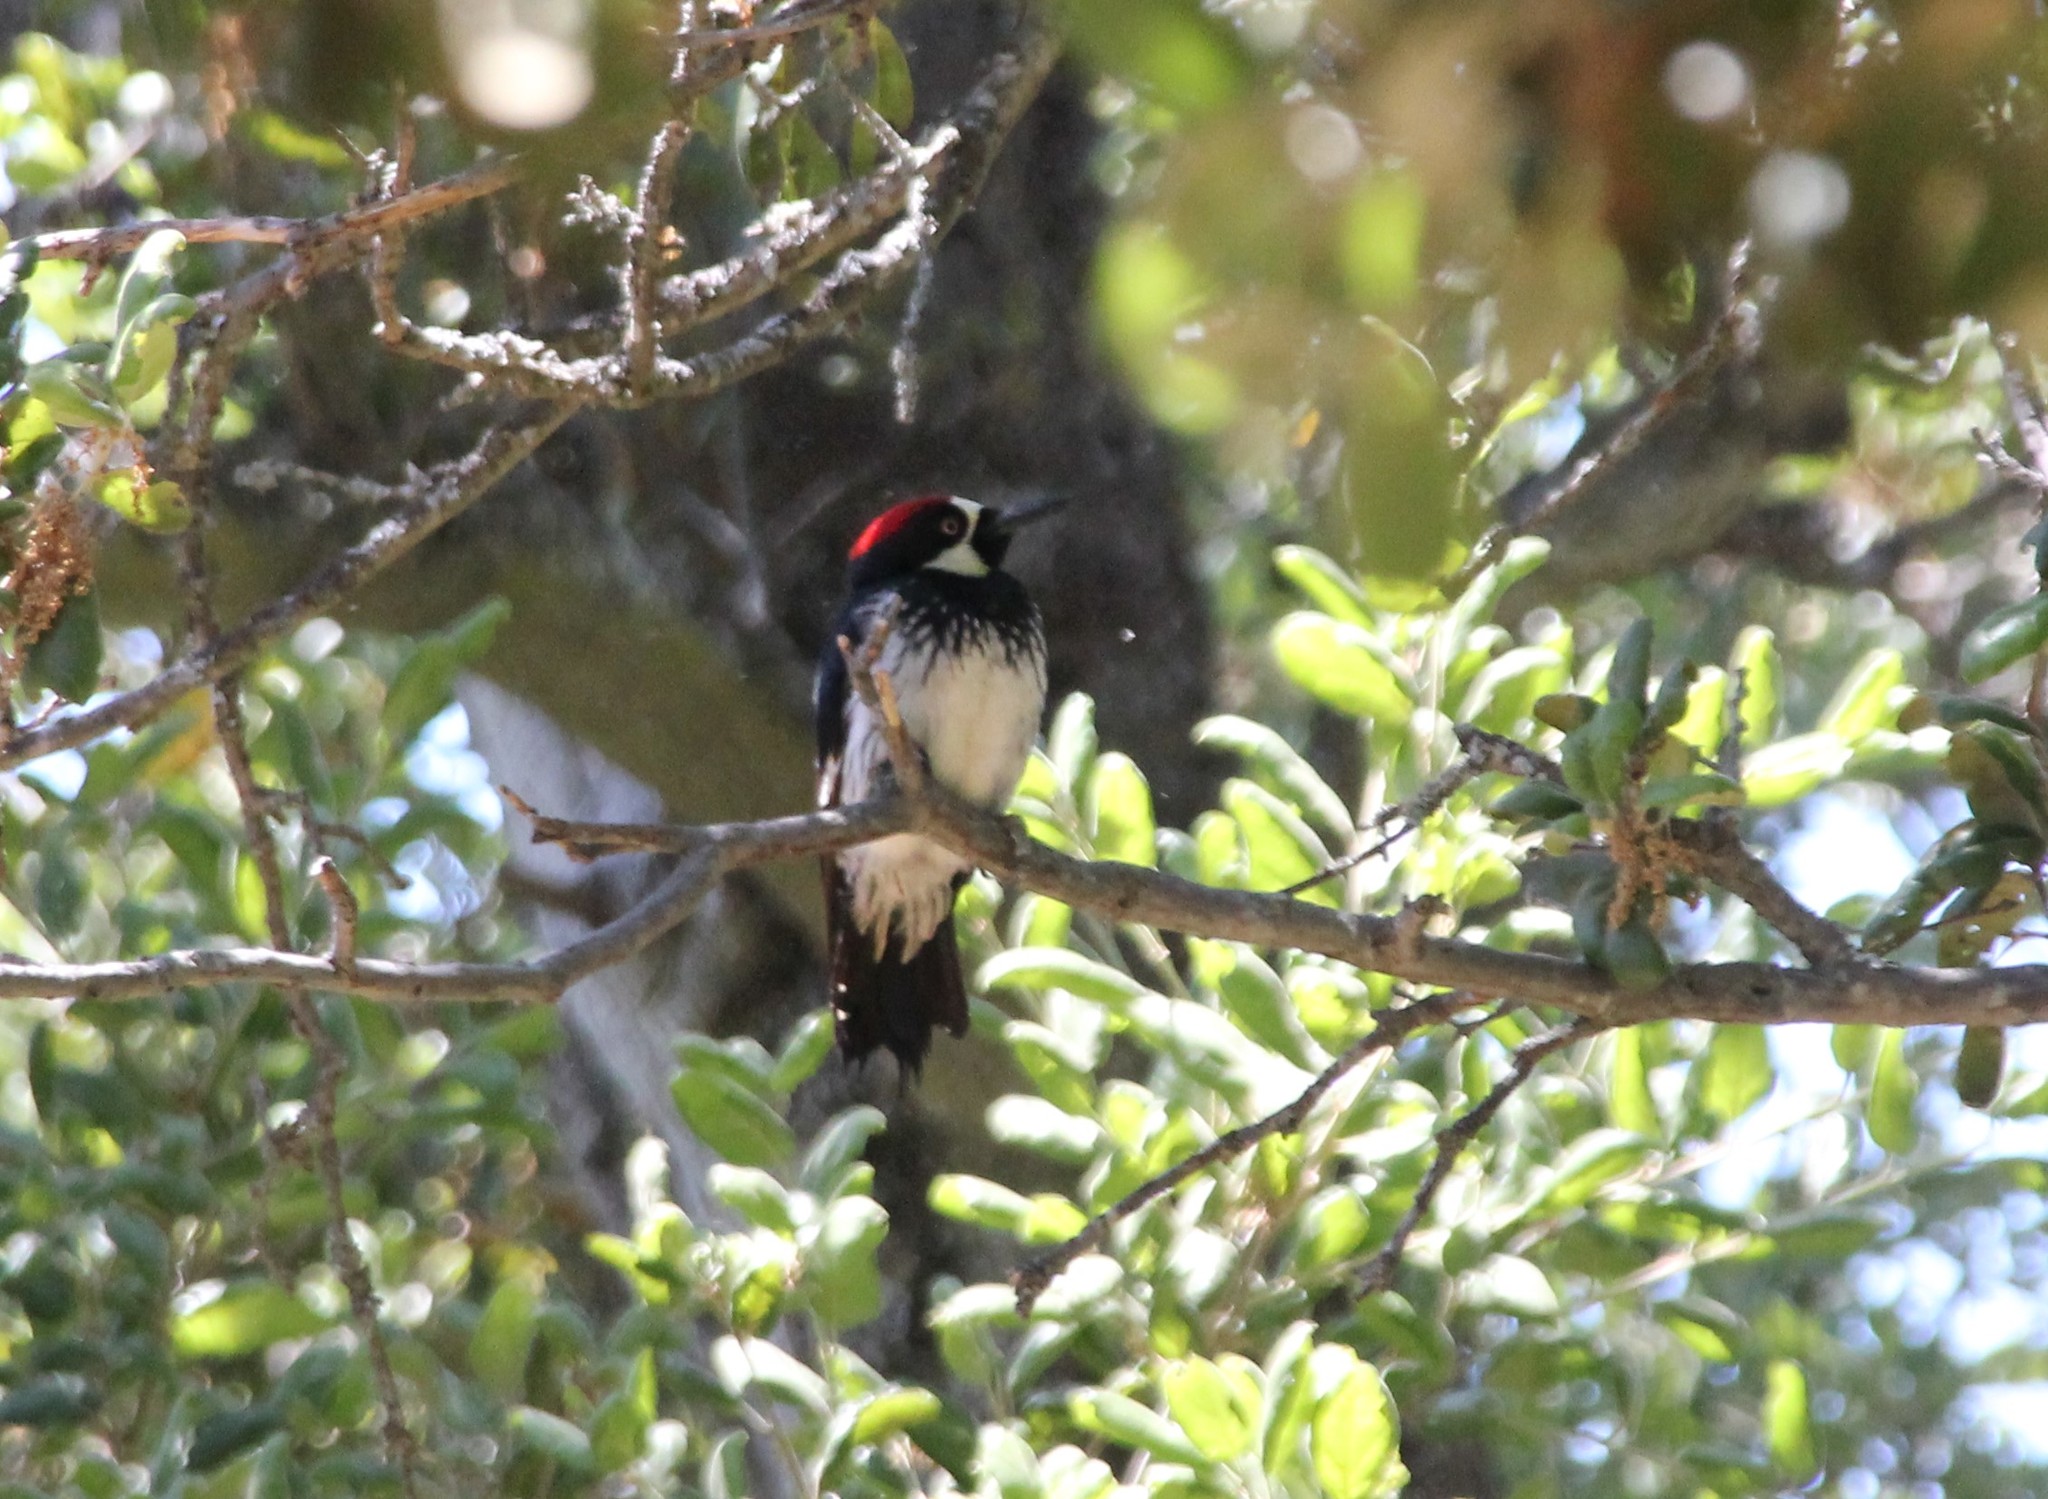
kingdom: Animalia
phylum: Chordata
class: Aves
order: Piciformes
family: Picidae
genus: Melanerpes
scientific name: Melanerpes formicivorus
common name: Acorn woodpecker
